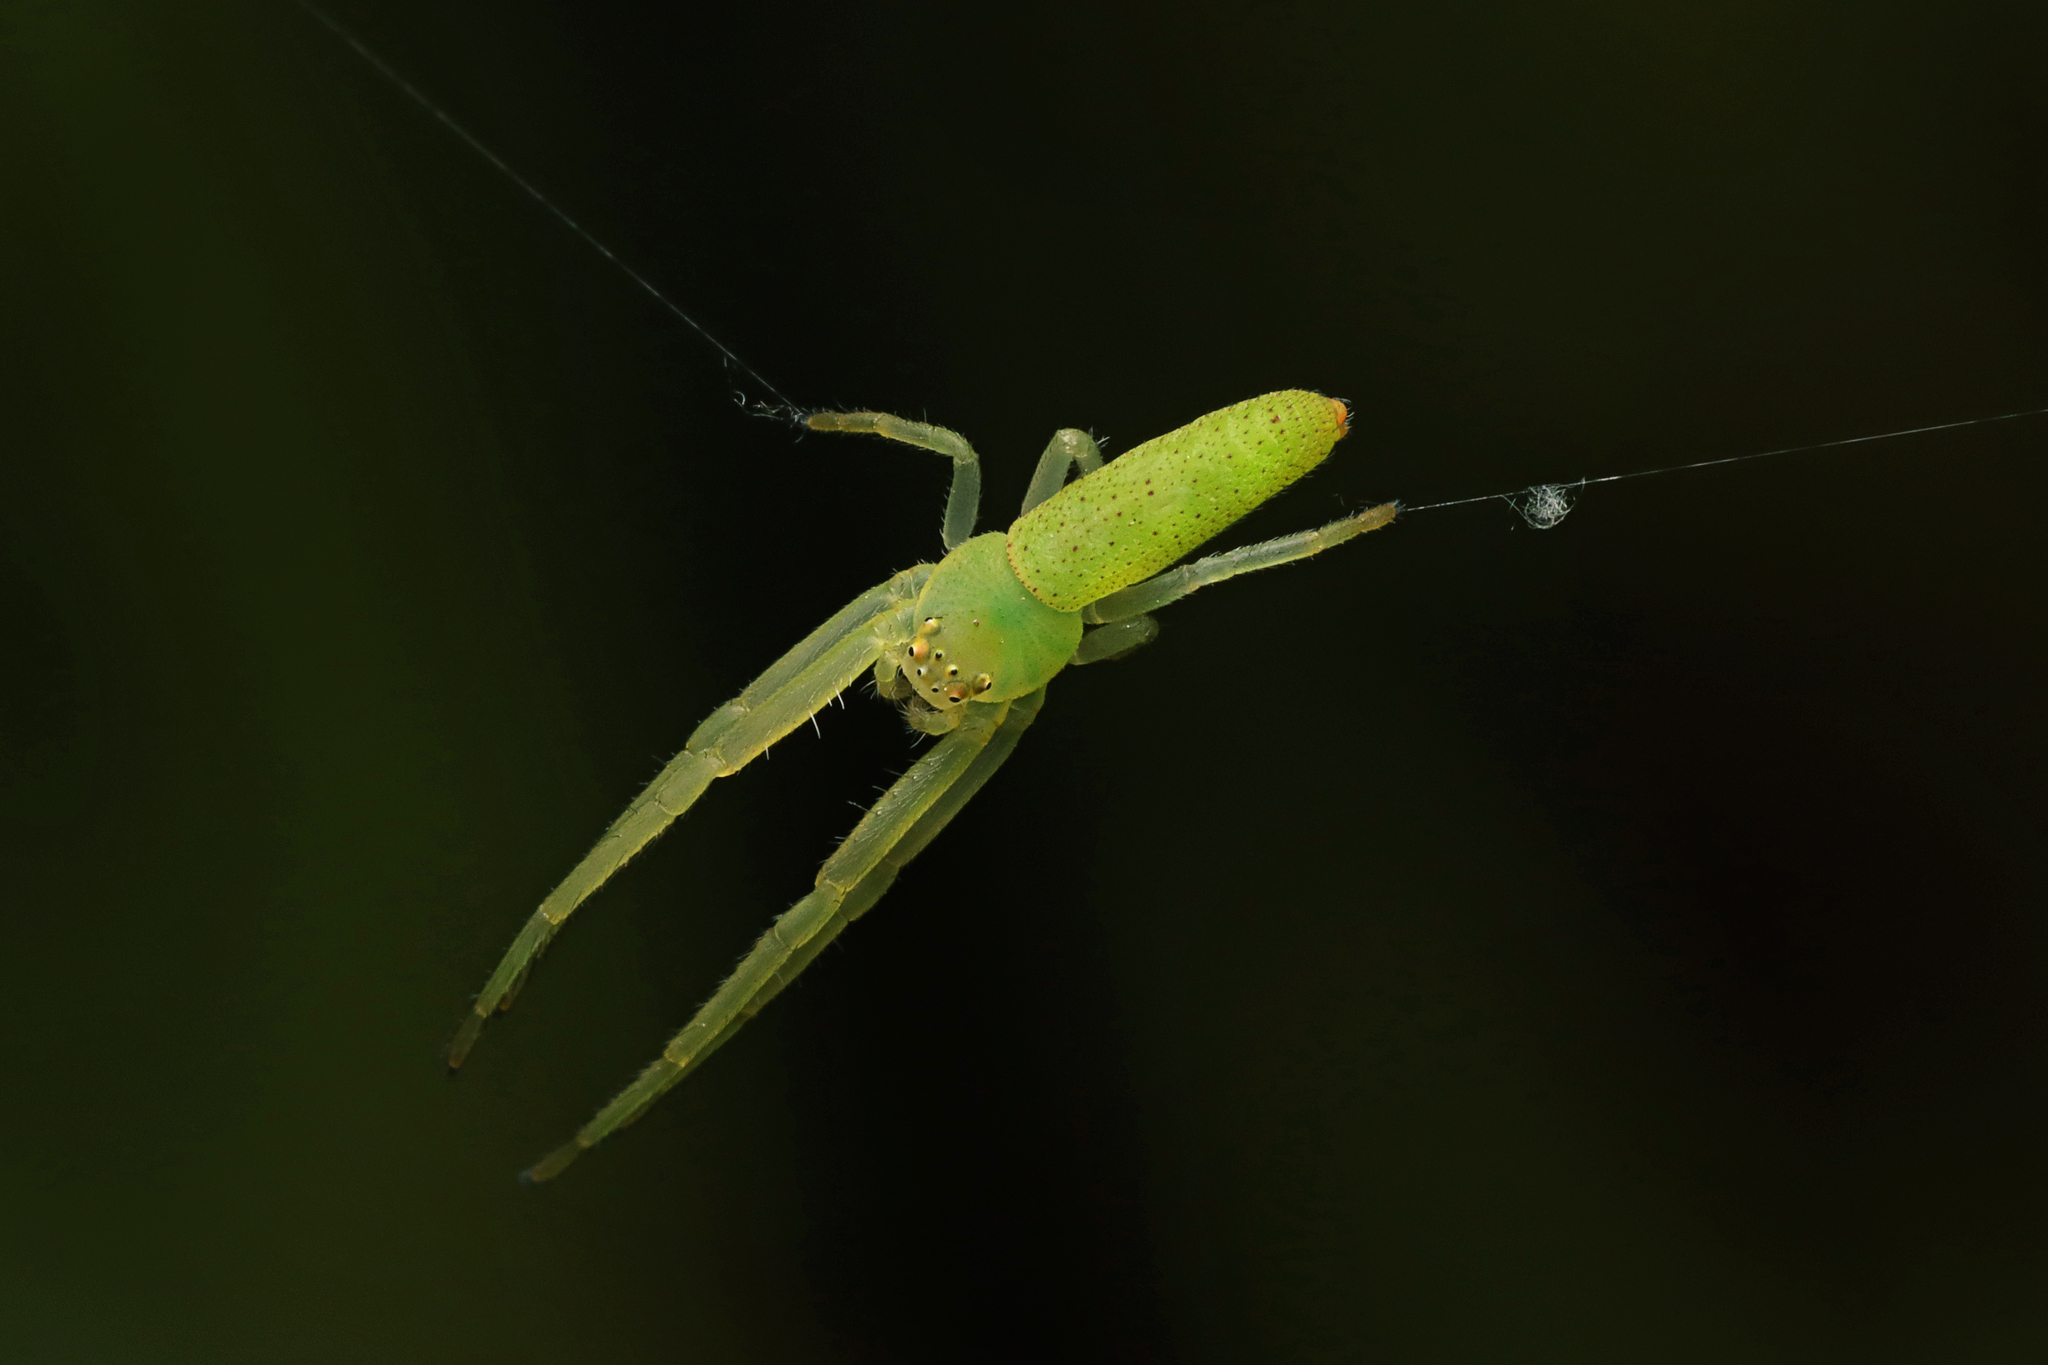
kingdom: Animalia
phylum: Arthropoda
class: Arachnida
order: Araneae
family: Thomisidae
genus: Cetratus
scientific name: Cetratus rubropunctatus
